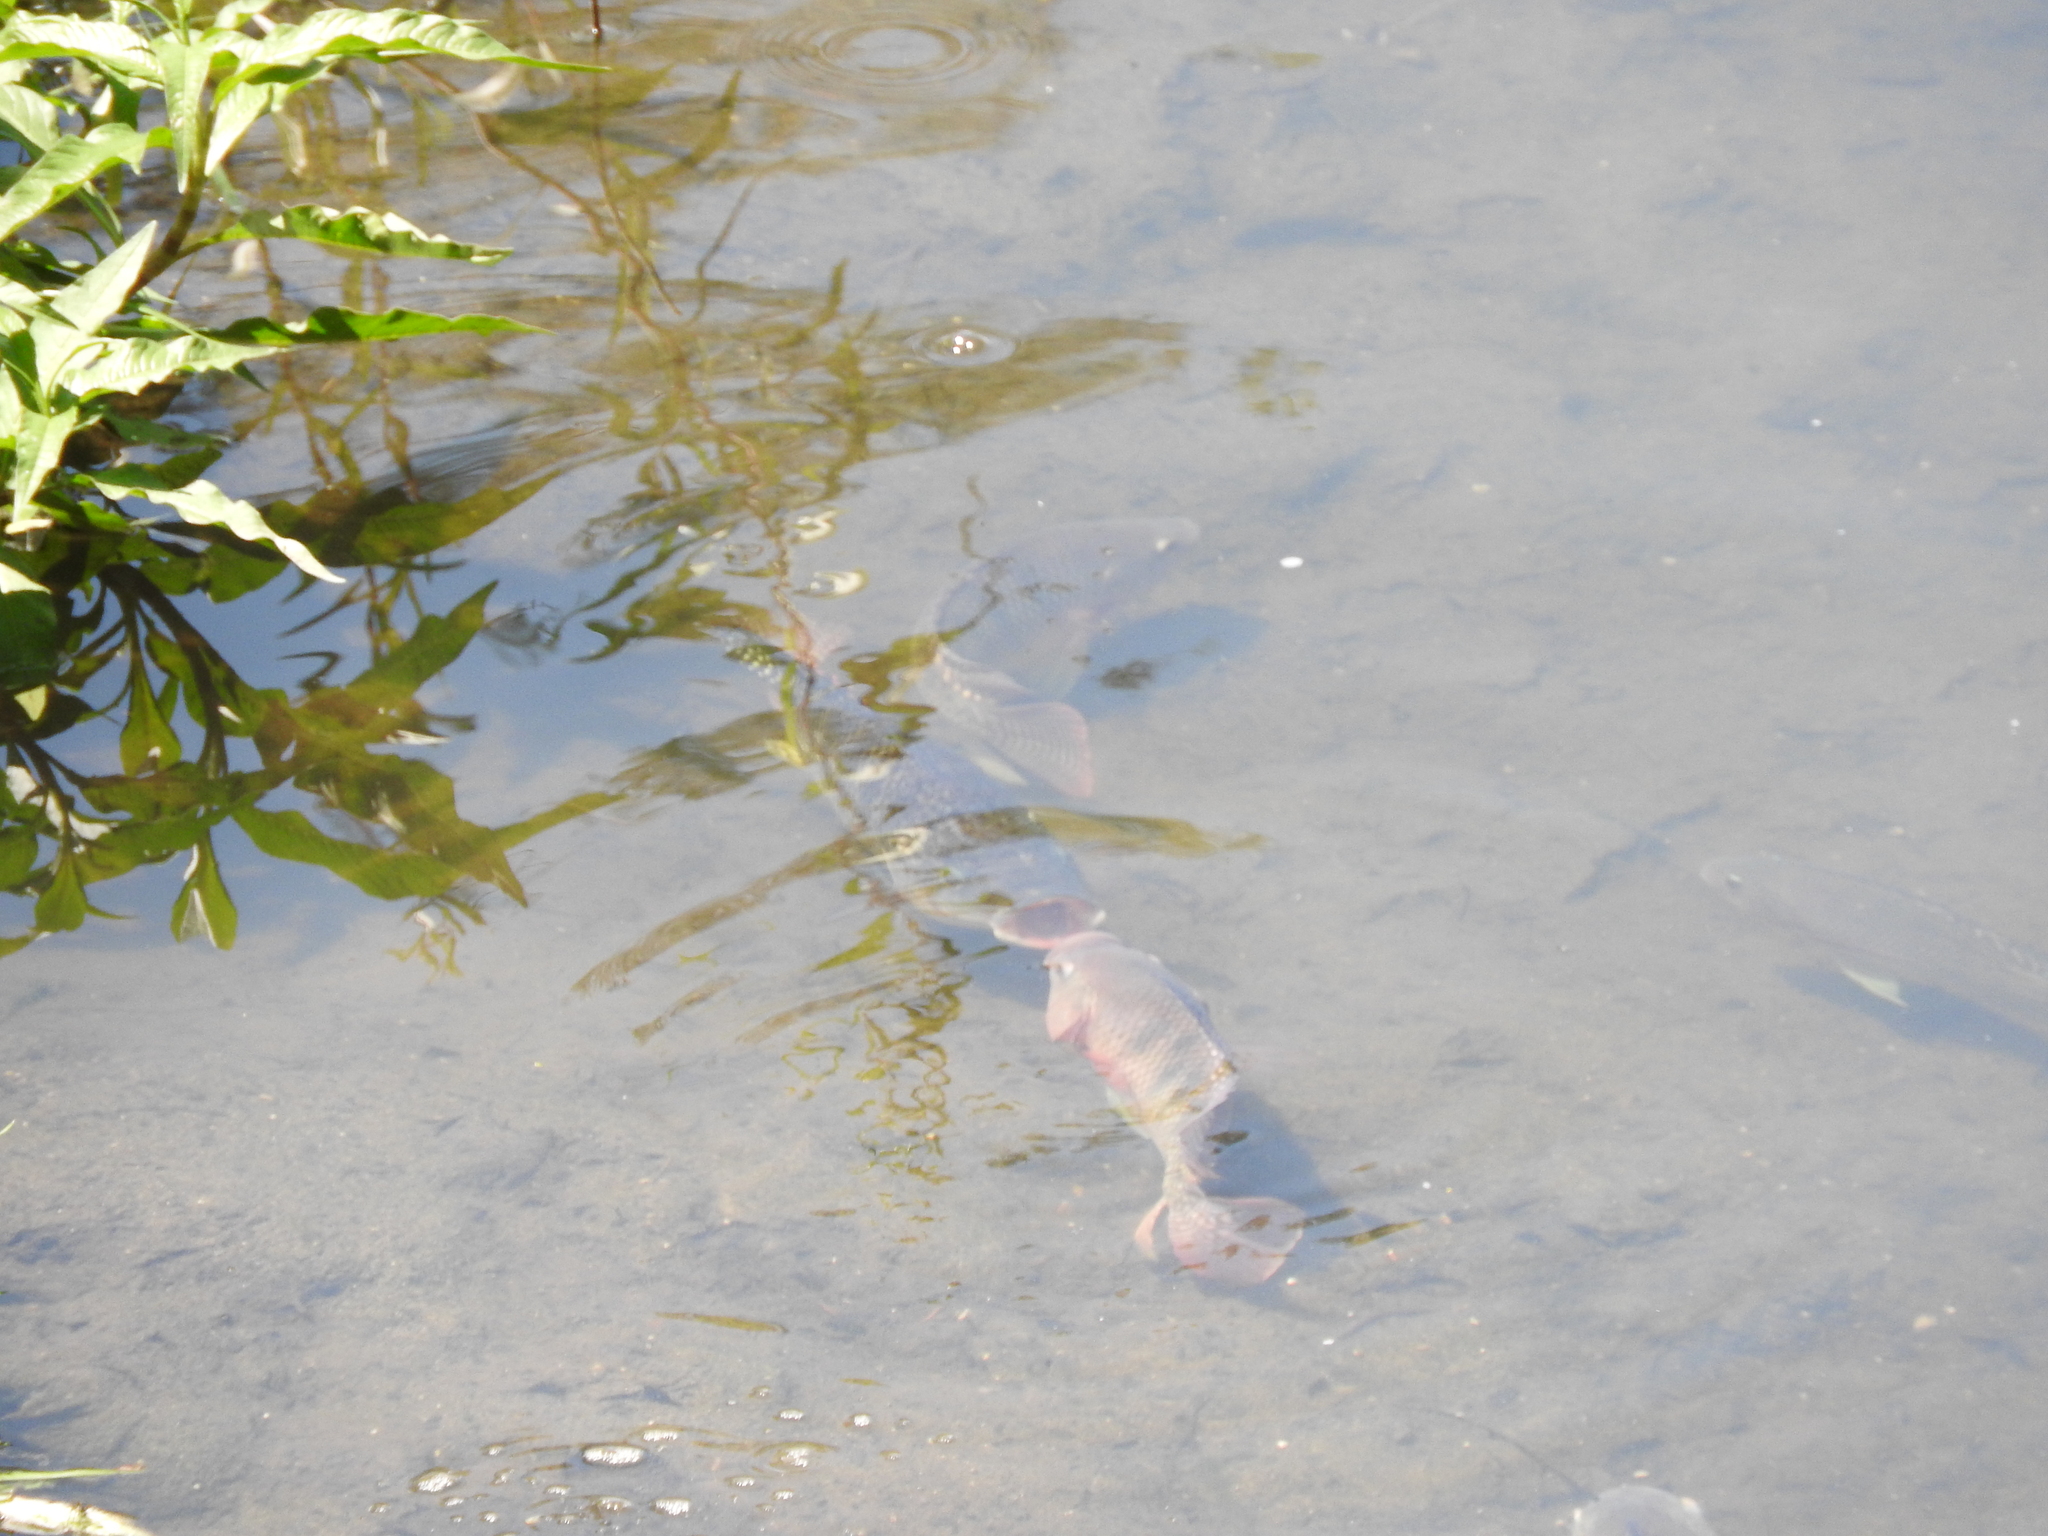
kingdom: Animalia
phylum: Chordata
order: Perciformes
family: Cichlidae
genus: Oreochromis
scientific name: Oreochromis niloticus
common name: Nile tilapia
